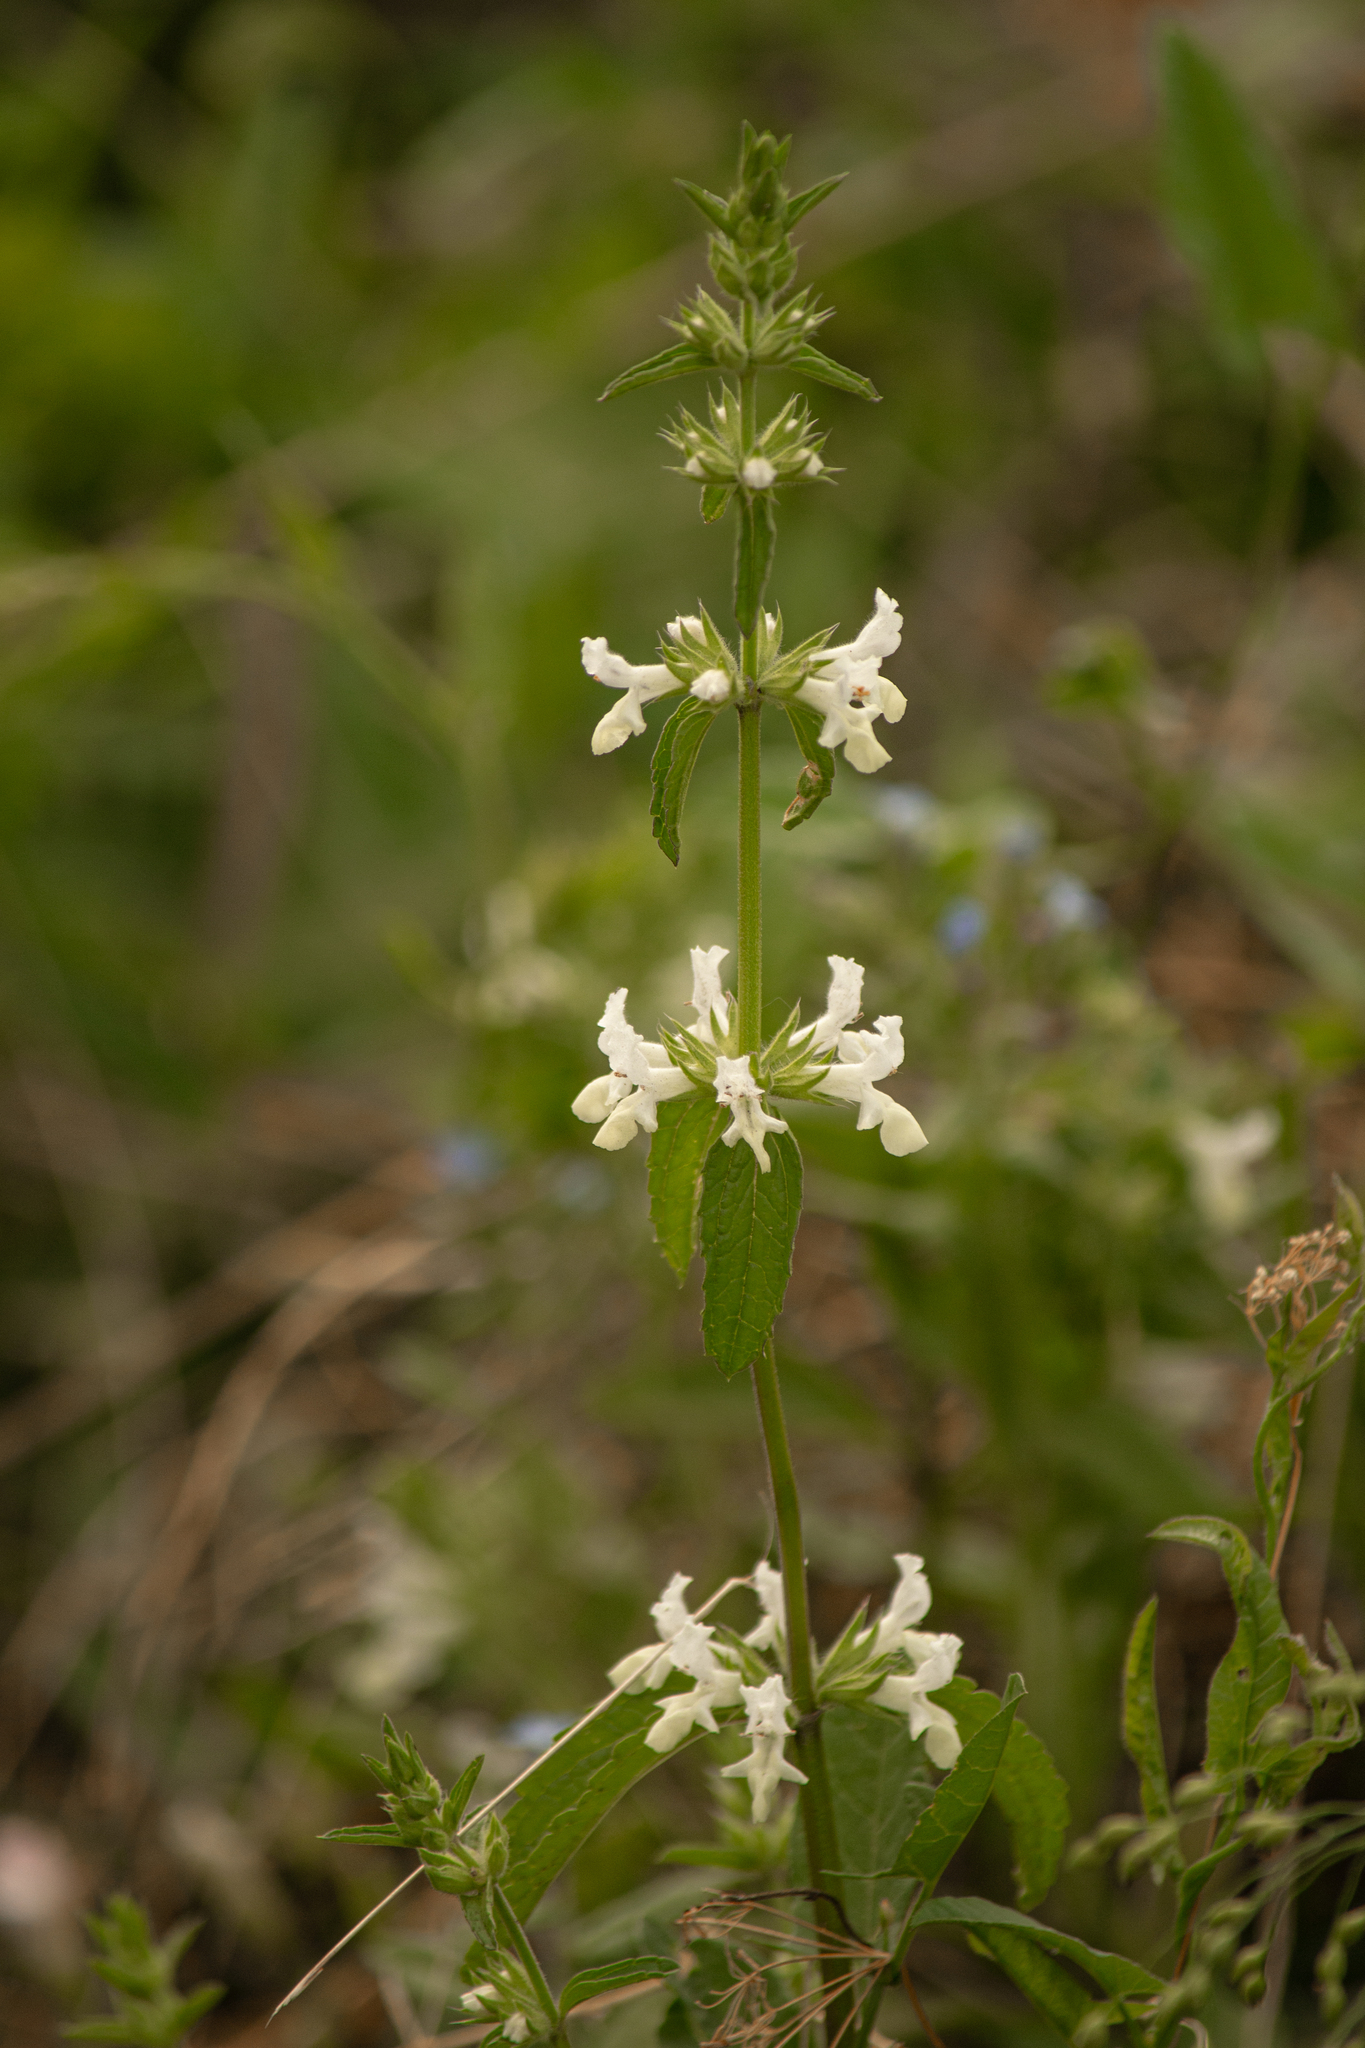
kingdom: Plantae
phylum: Tracheophyta
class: Magnoliopsida
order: Lamiales
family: Lamiaceae
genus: Stachys
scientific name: Stachys annua
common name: Annual yellow-woundwort
